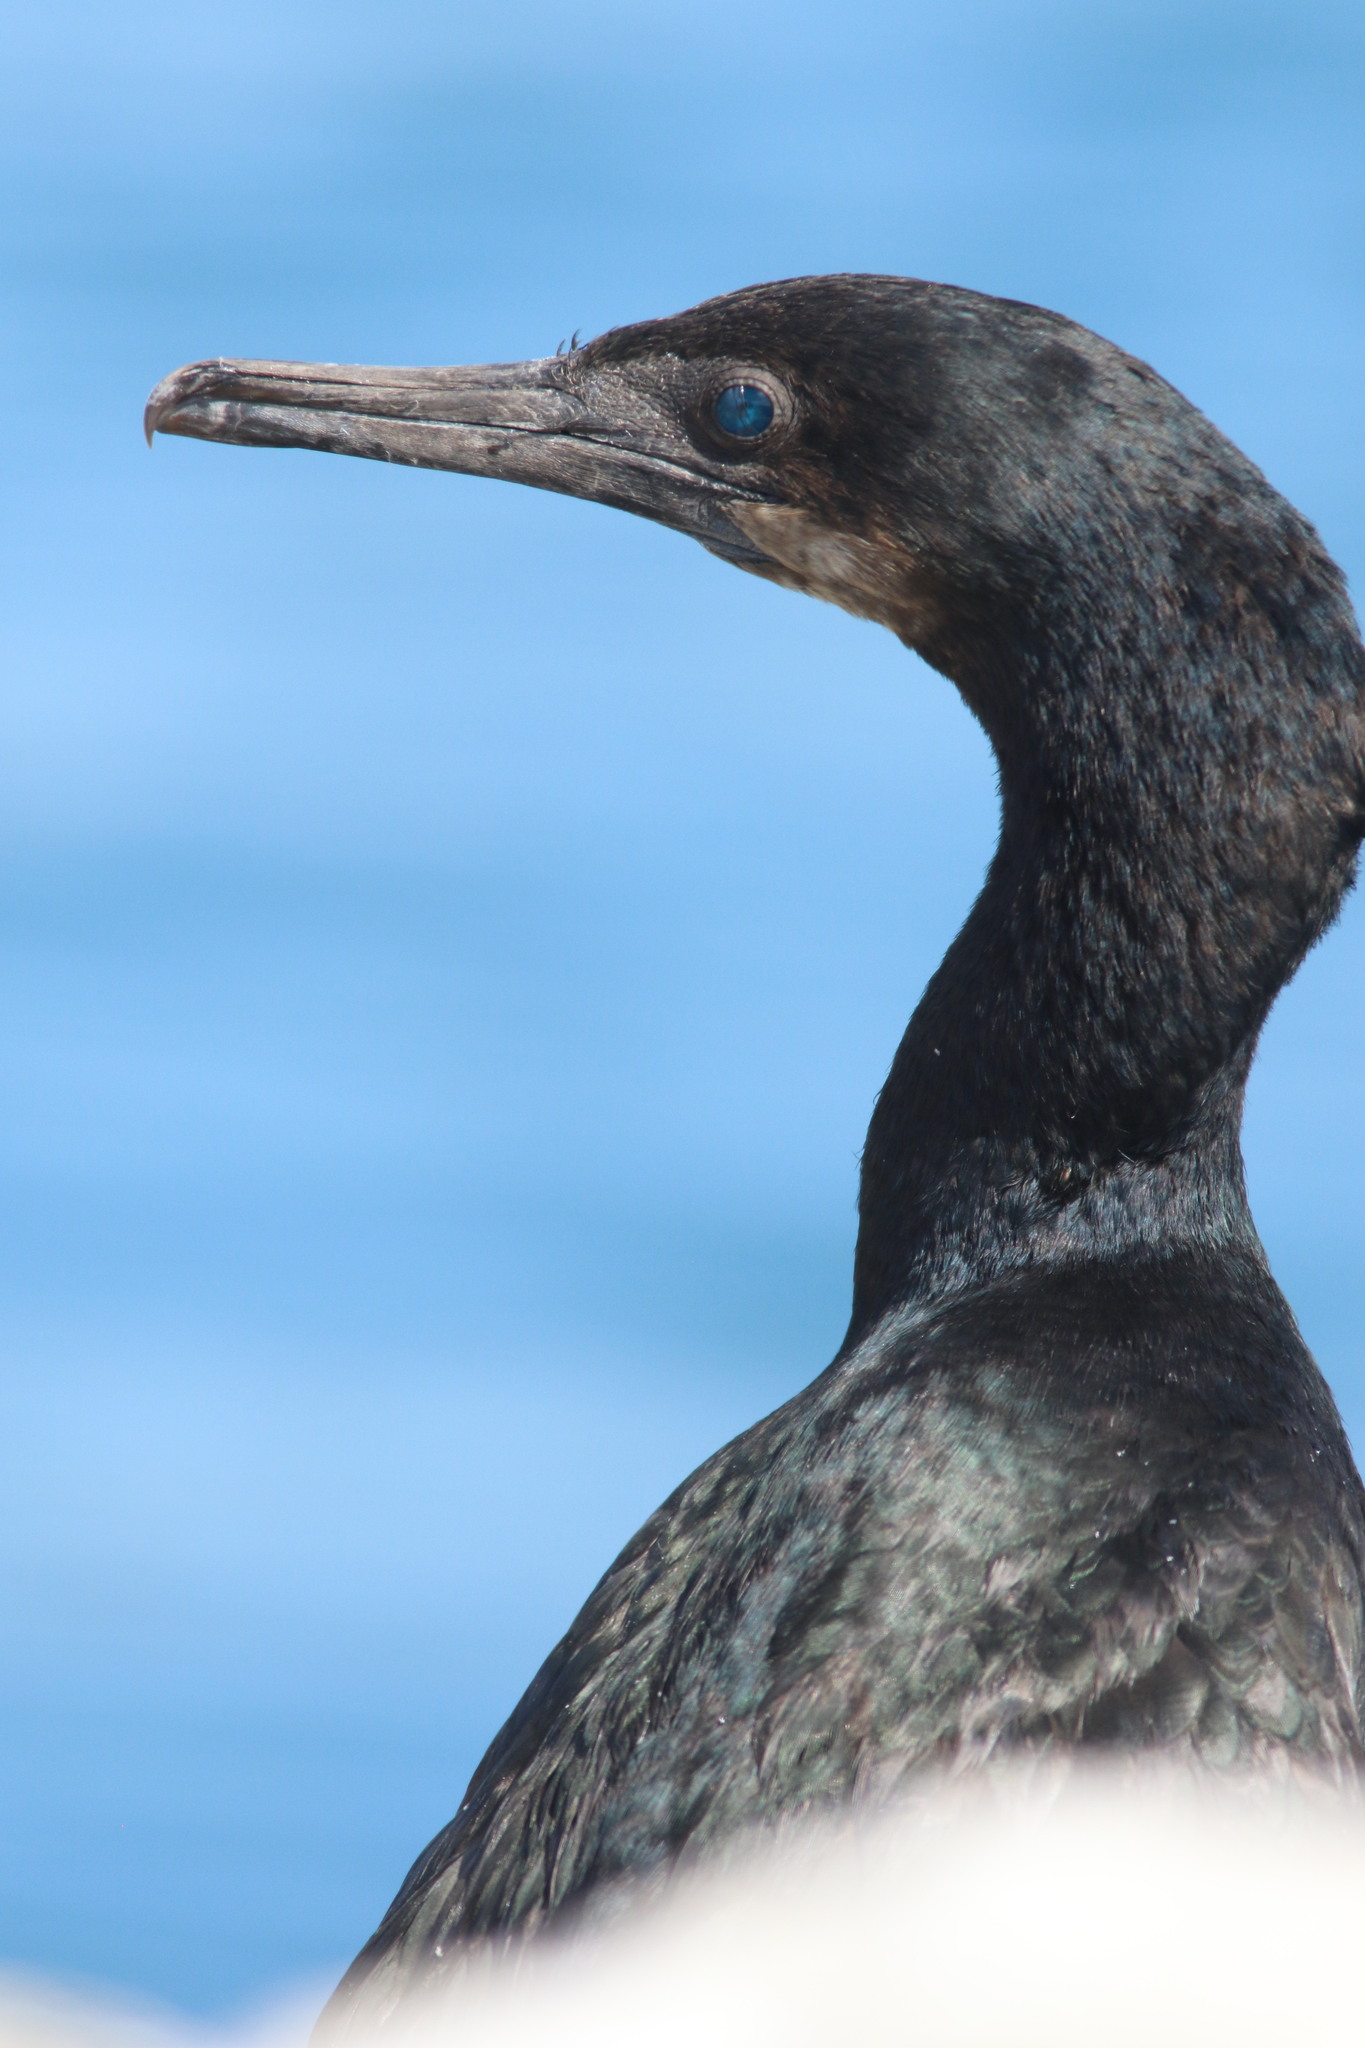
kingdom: Animalia
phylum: Chordata
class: Aves
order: Suliformes
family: Phalacrocoracidae
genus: Urile
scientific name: Urile penicillatus
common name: Brandt's cormorant
